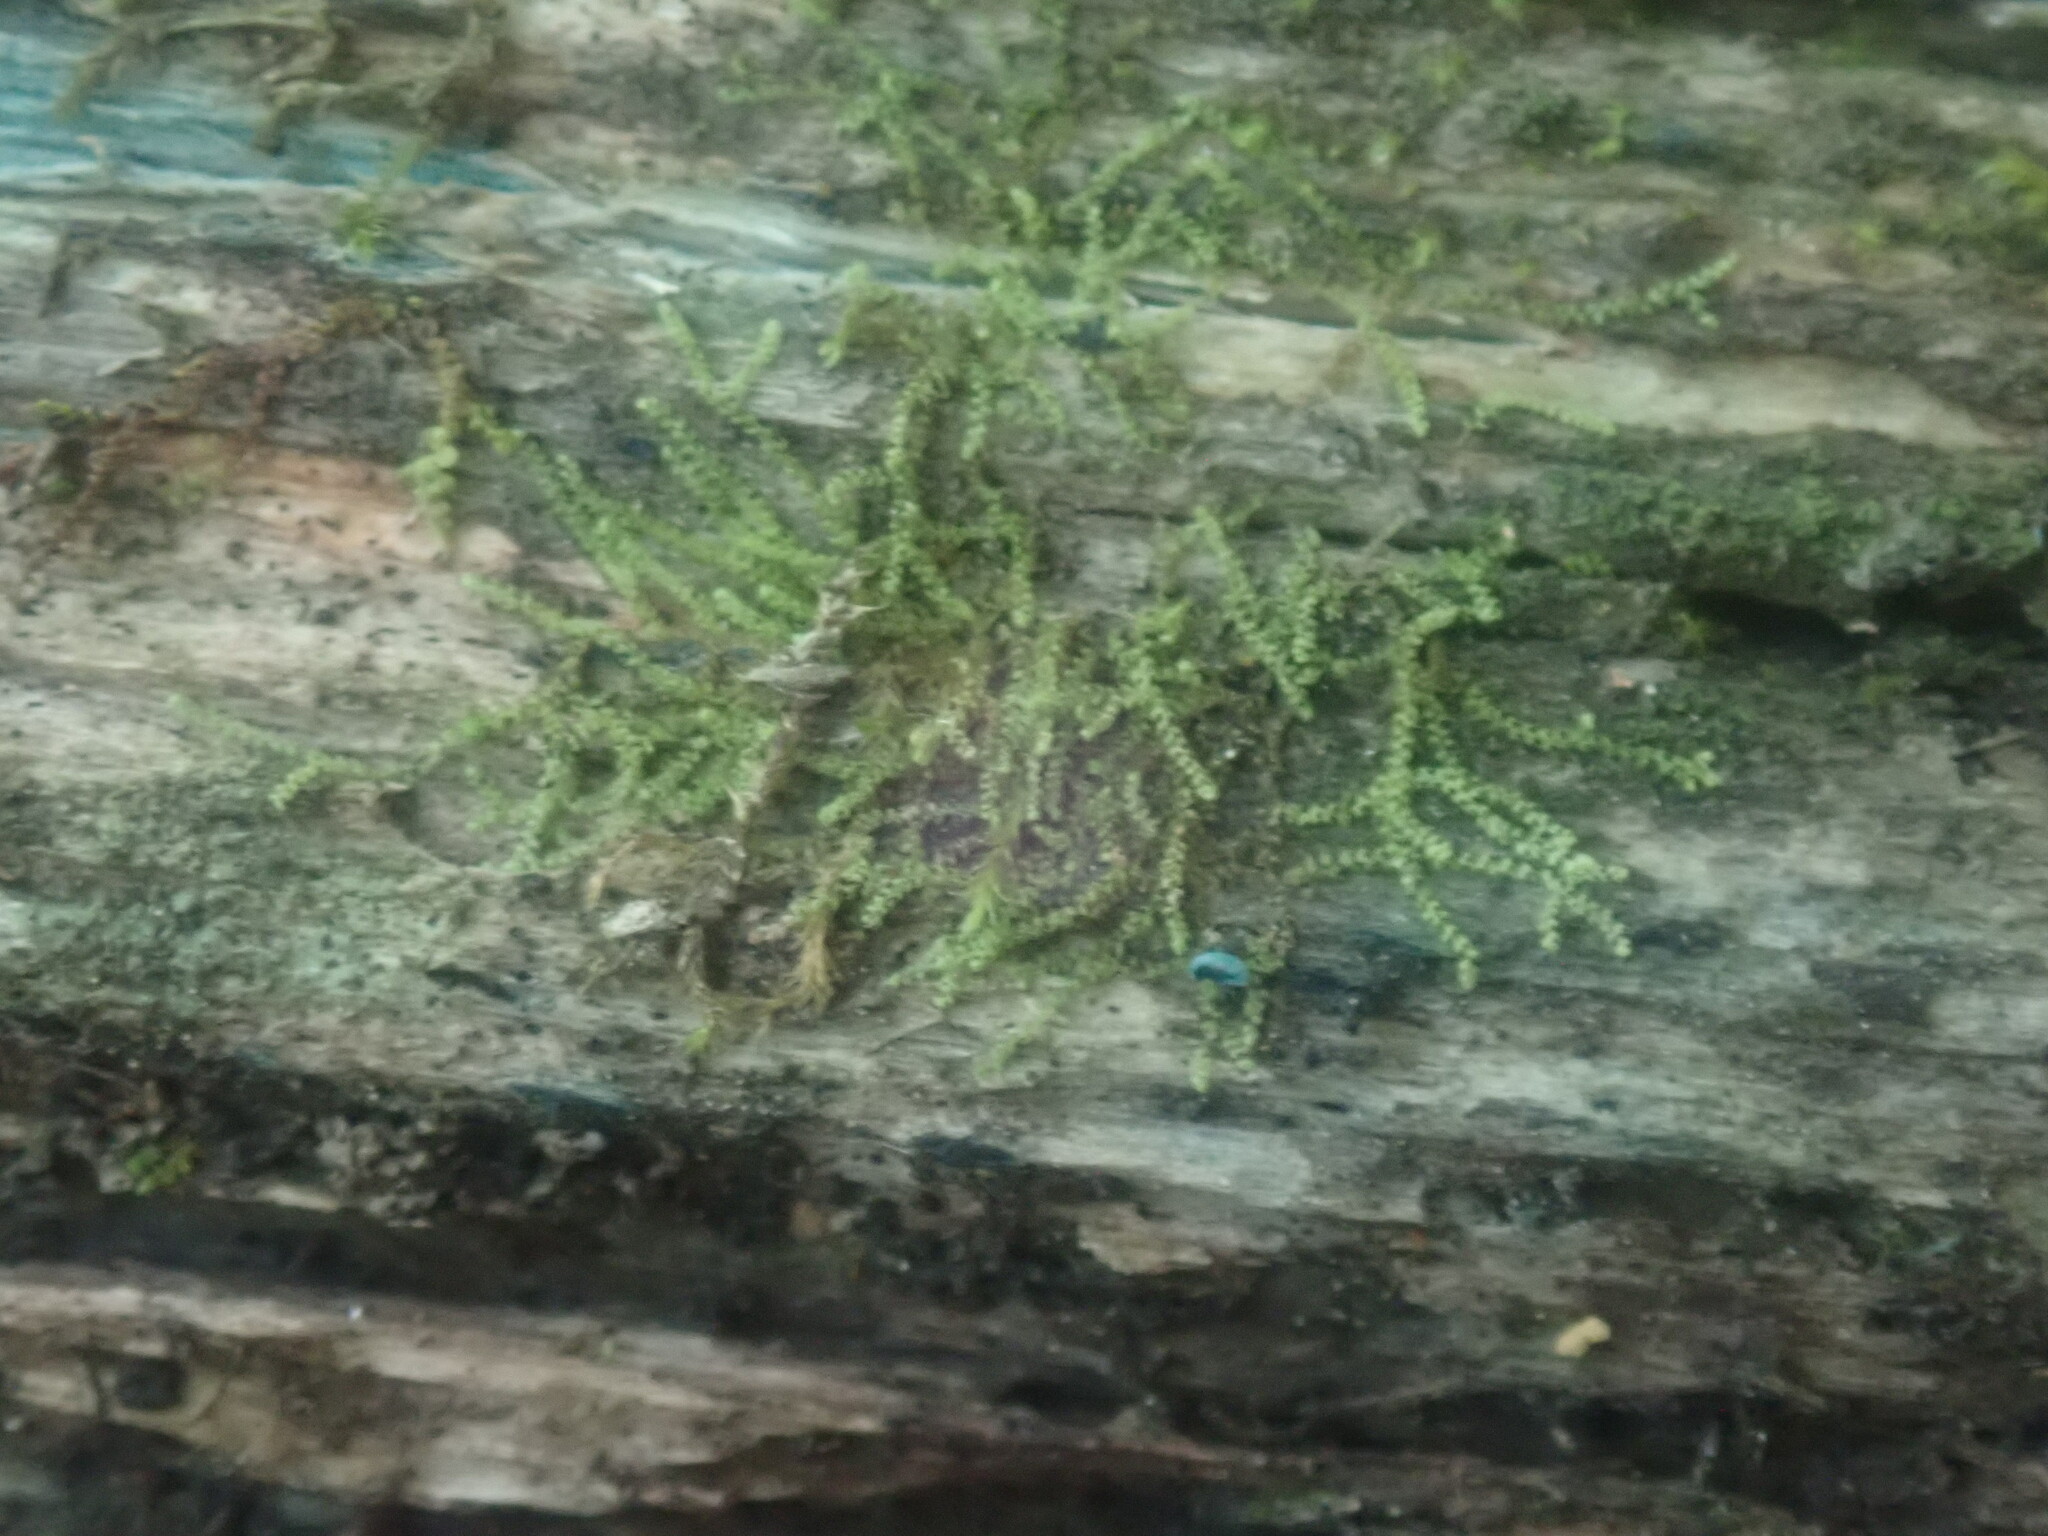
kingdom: Plantae
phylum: Marchantiophyta
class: Jungermanniopsida
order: Jungermanniales
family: Cephaloziaceae
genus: Nowellia
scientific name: Nowellia curvifolia
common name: Wood rustwort
